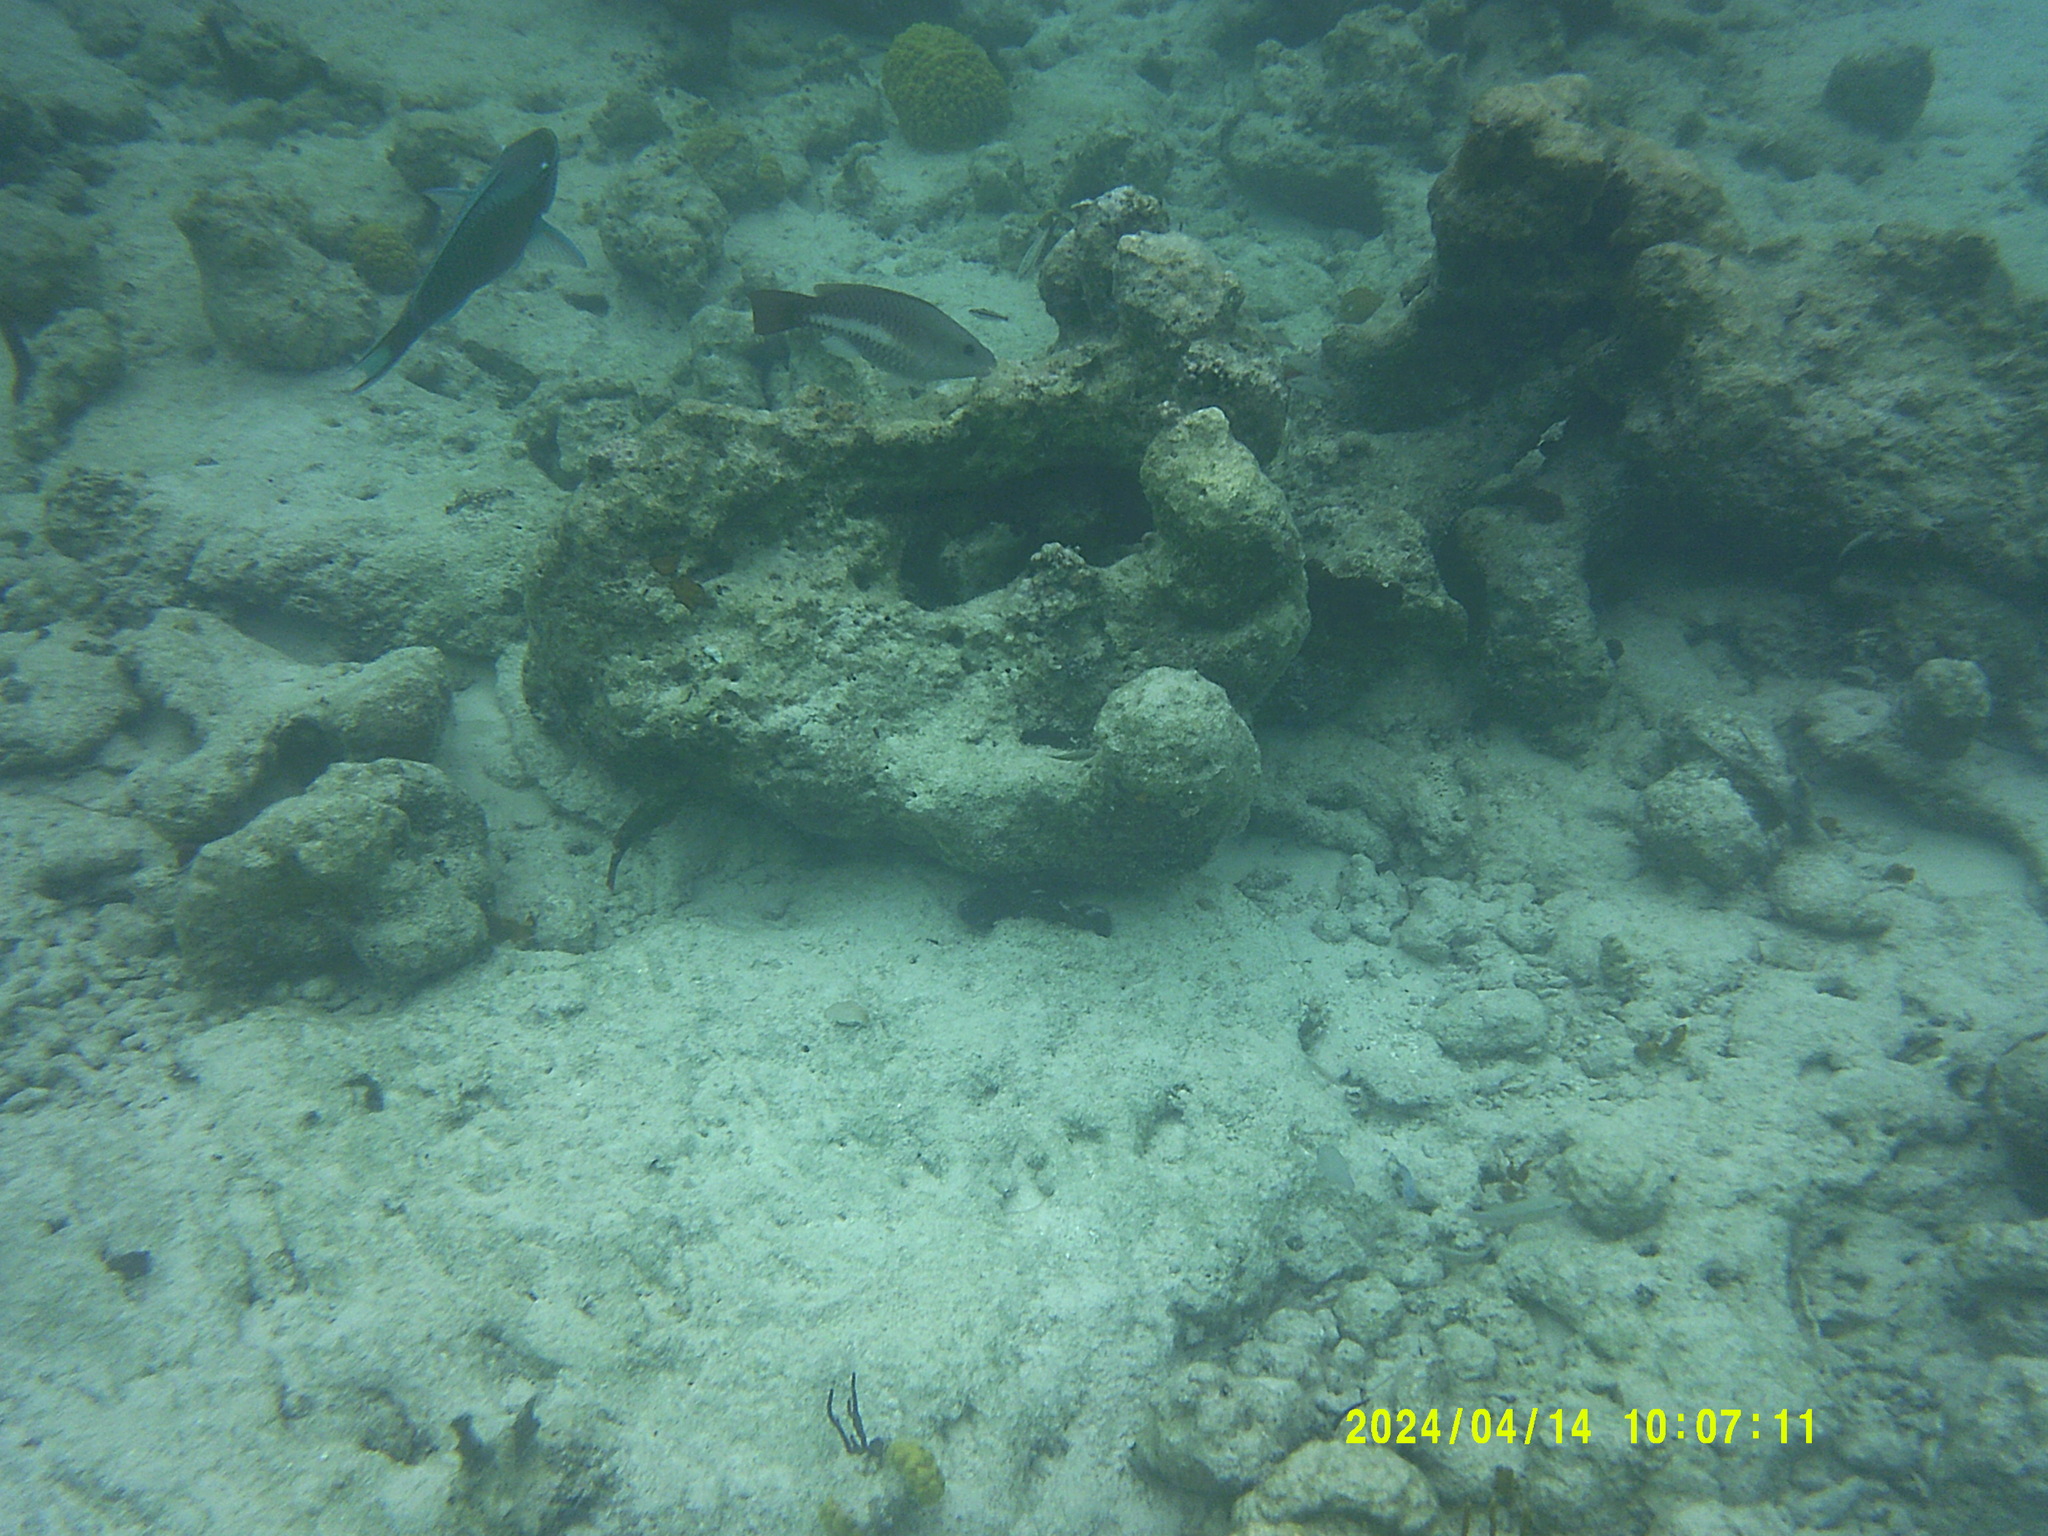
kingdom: Animalia
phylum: Chordata
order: Perciformes
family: Scaridae
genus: Scarus
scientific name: Scarus vetula
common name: Queen parrotfish
